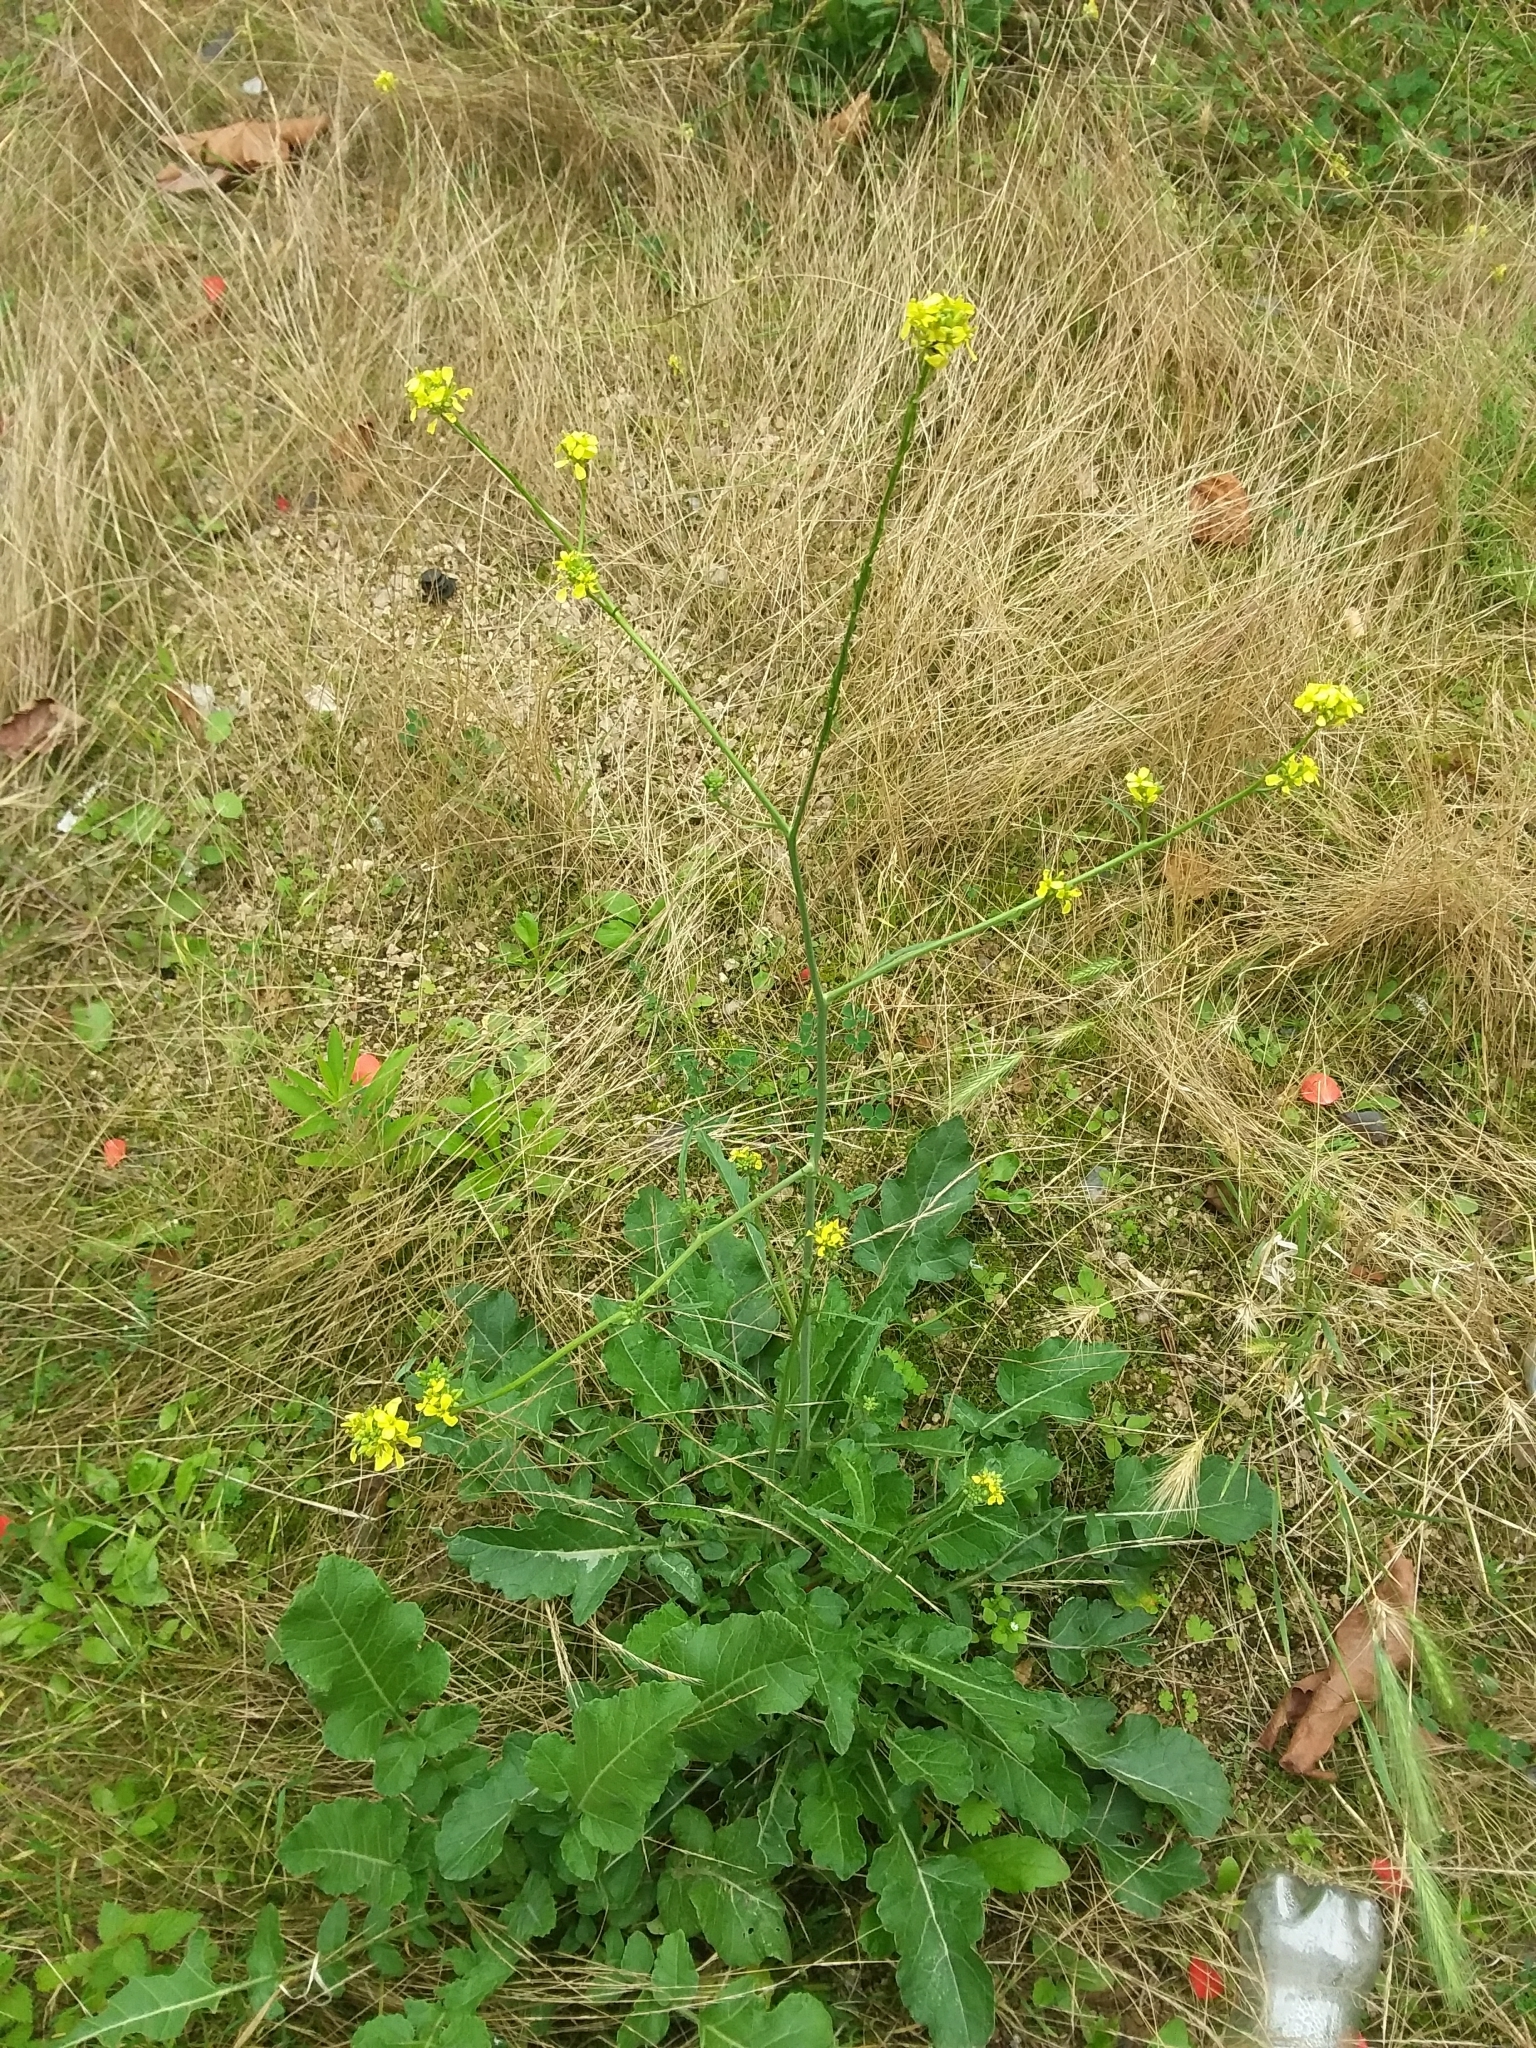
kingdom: Plantae
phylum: Tracheophyta
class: Magnoliopsida
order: Brassicales
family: Brassicaceae
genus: Hirschfeldia
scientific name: Hirschfeldia incana
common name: Hoary mustard
